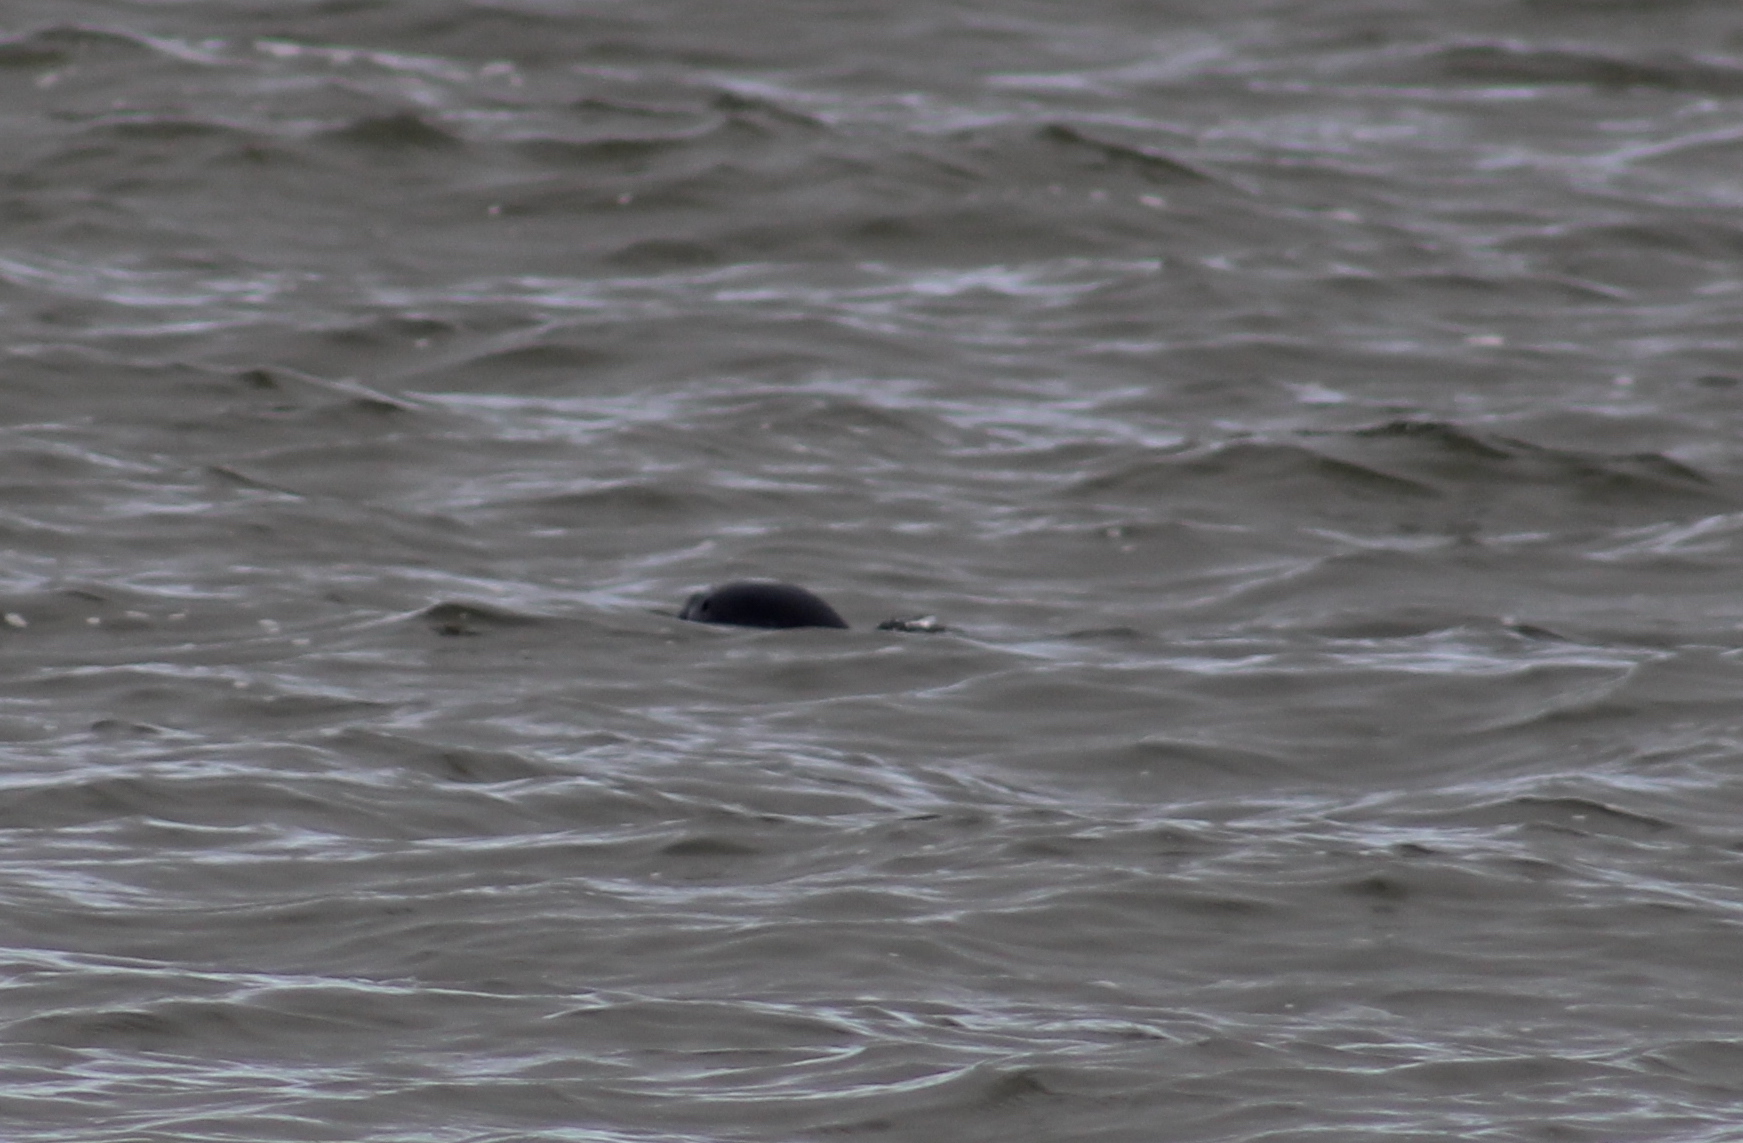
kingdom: Animalia
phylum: Chordata
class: Mammalia
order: Carnivora
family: Phocidae
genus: Phoca
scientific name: Phoca vitulina
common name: Harbor seal
